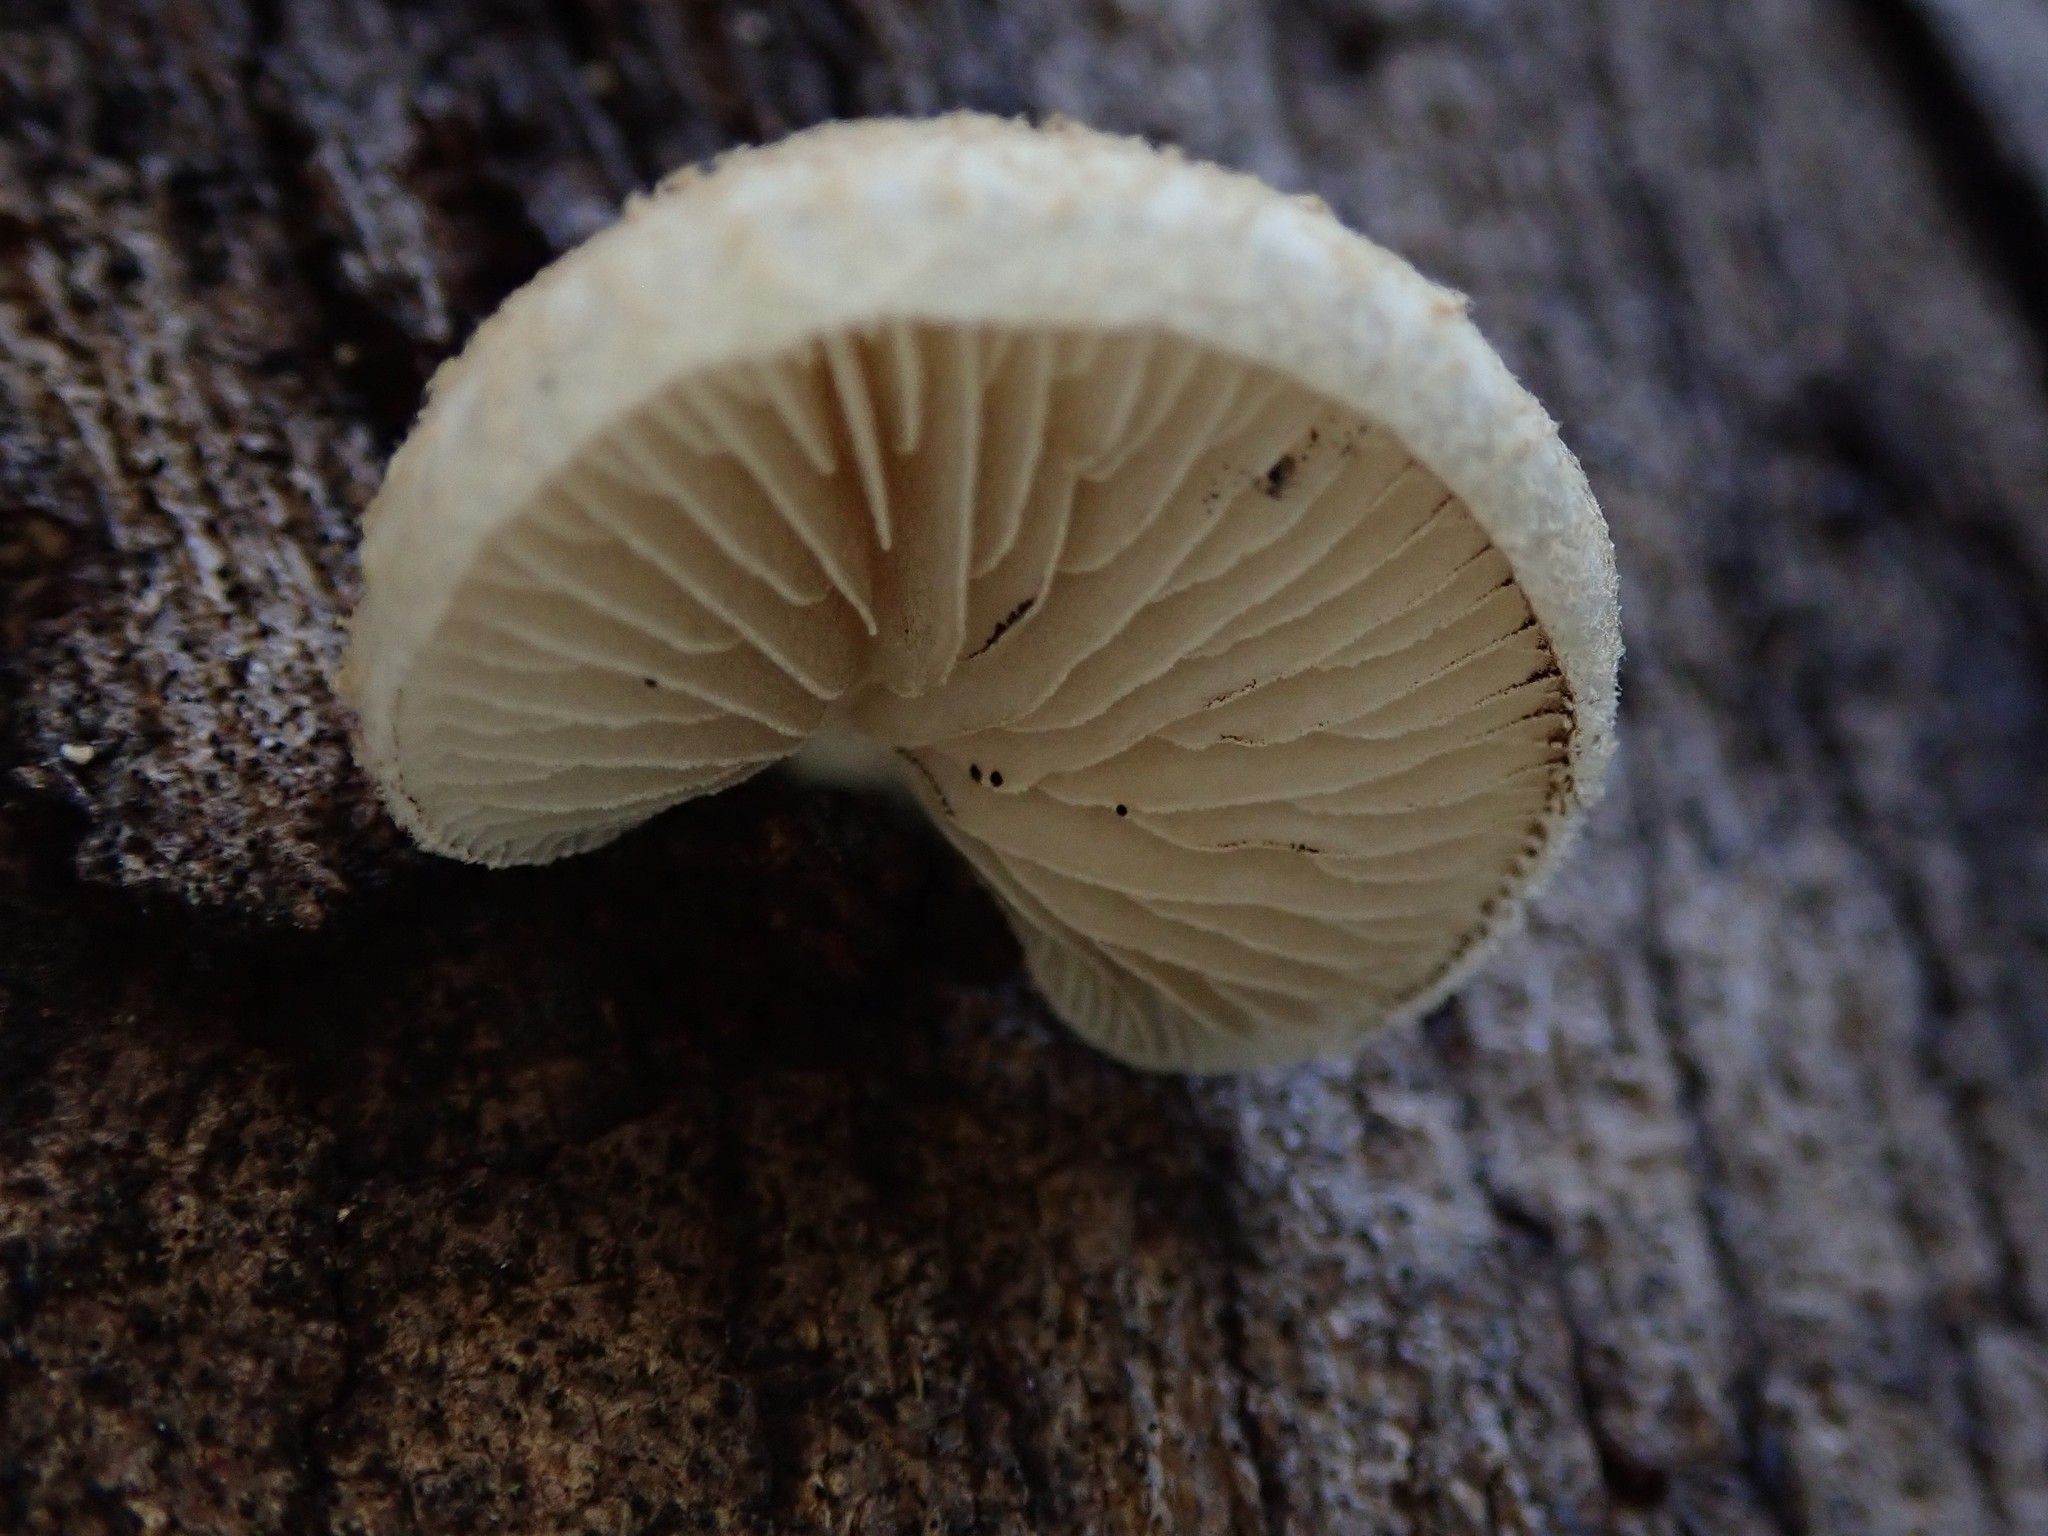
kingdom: Fungi
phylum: Basidiomycota
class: Agaricomycetes
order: Agaricales
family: Crepidotaceae
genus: Crepidotus
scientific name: Crepidotus mollis
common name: Peeling oysterling
